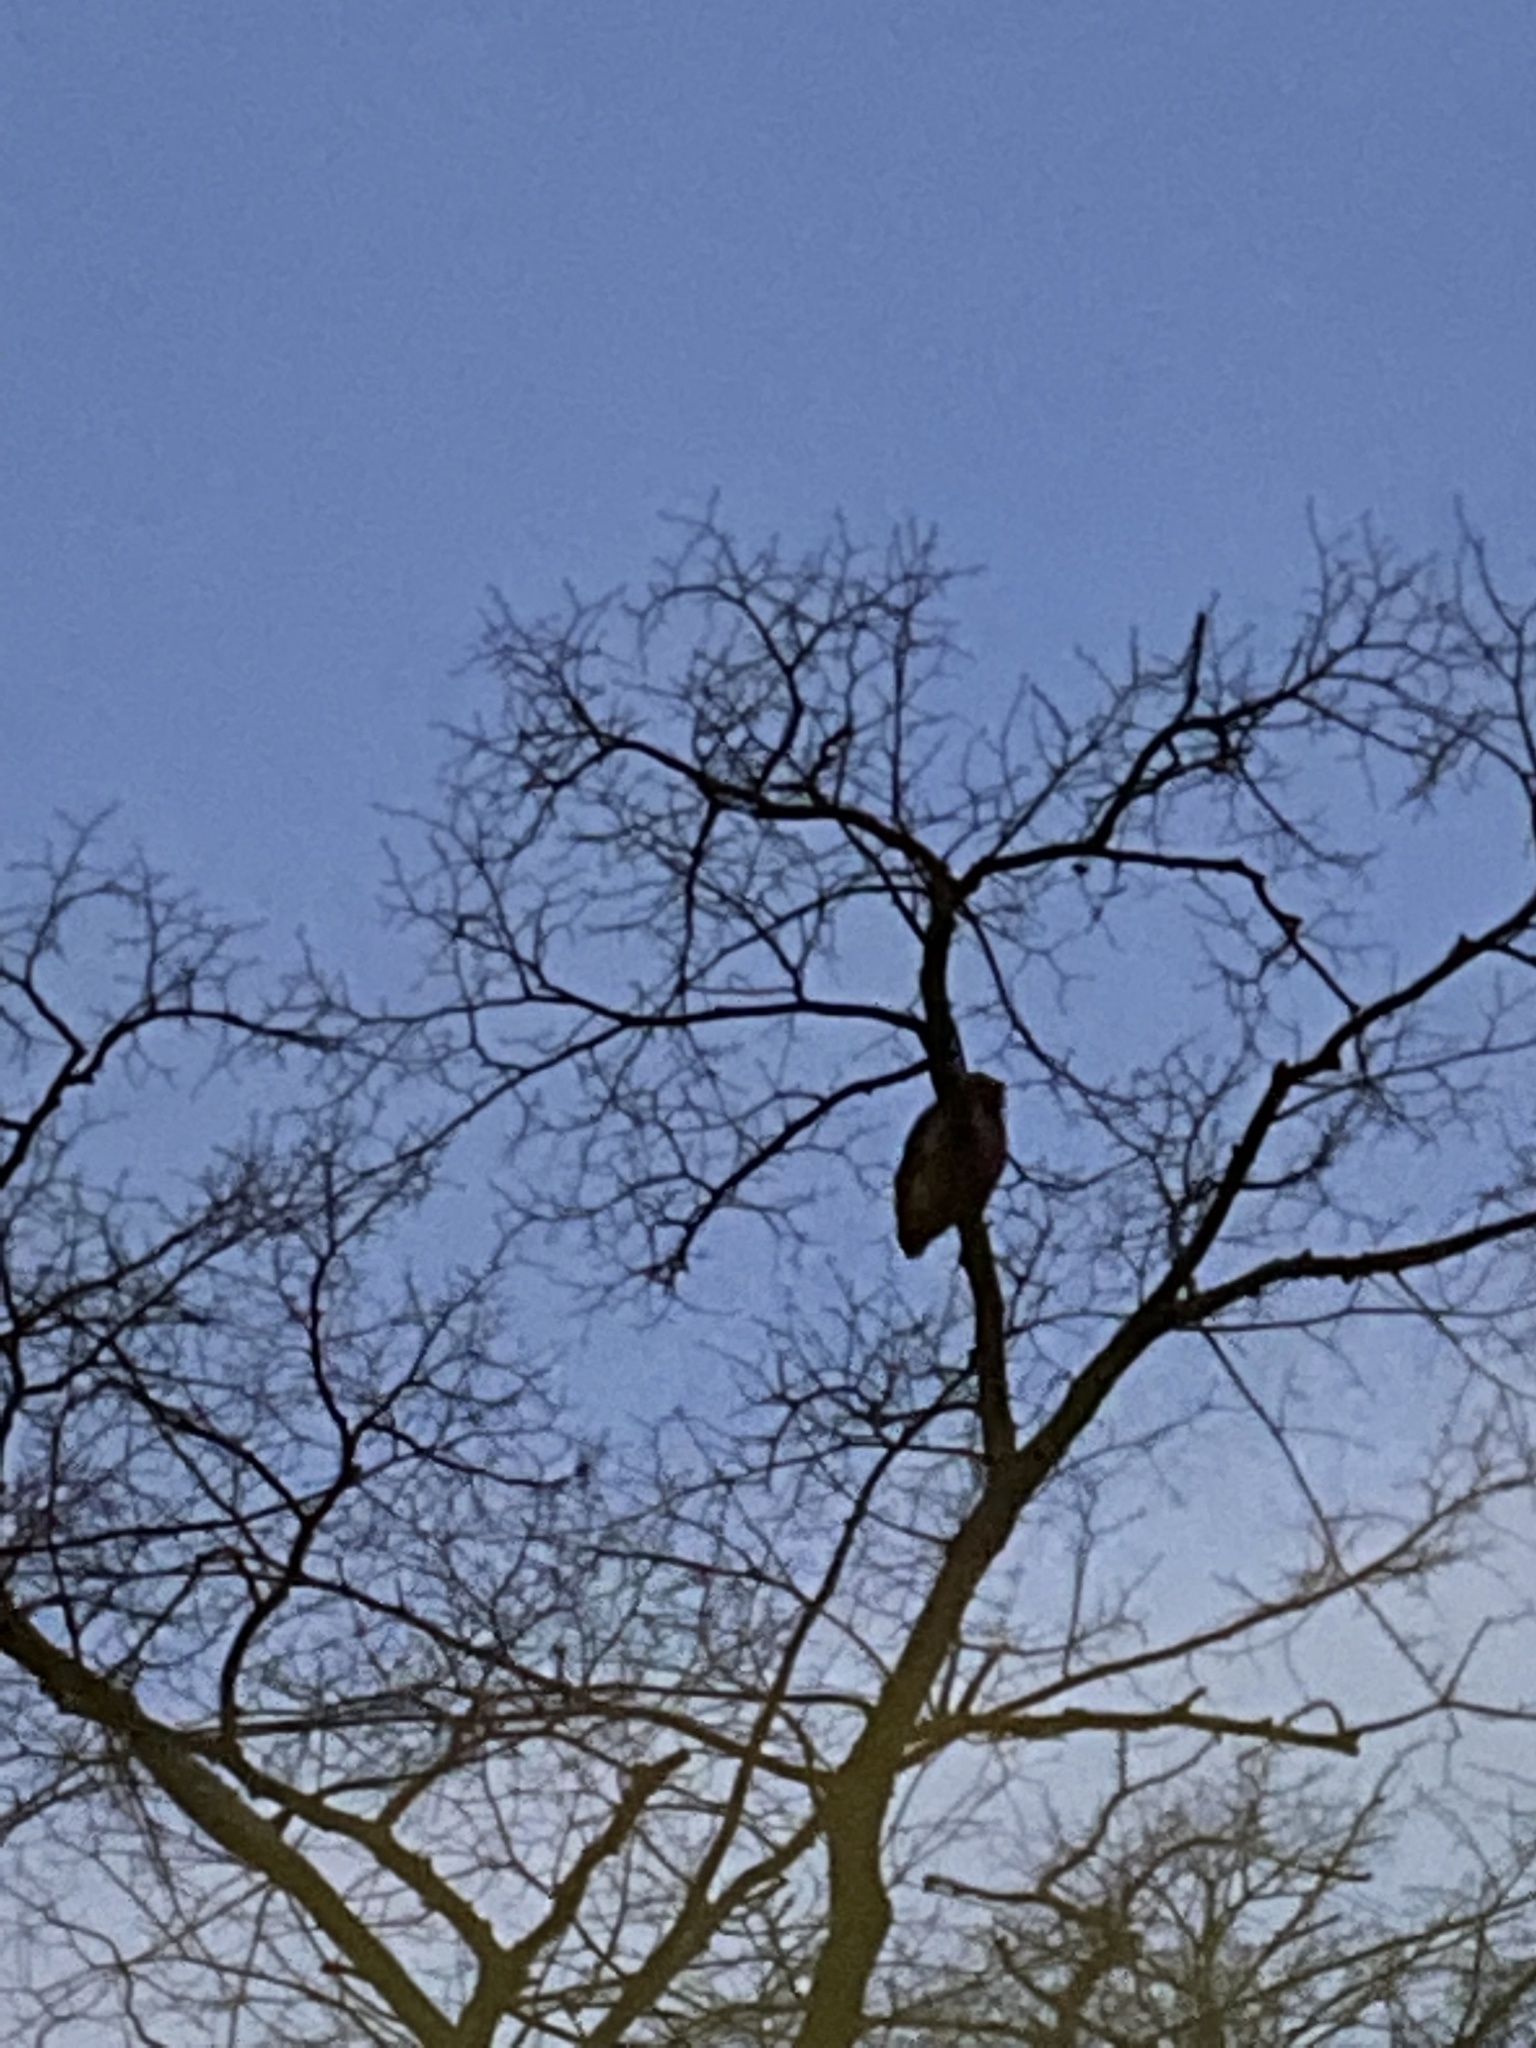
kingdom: Animalia
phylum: Chordata
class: Aves
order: Strigiformes
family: Strigidae
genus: Strix
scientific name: Strix aluco
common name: Tawny owl
